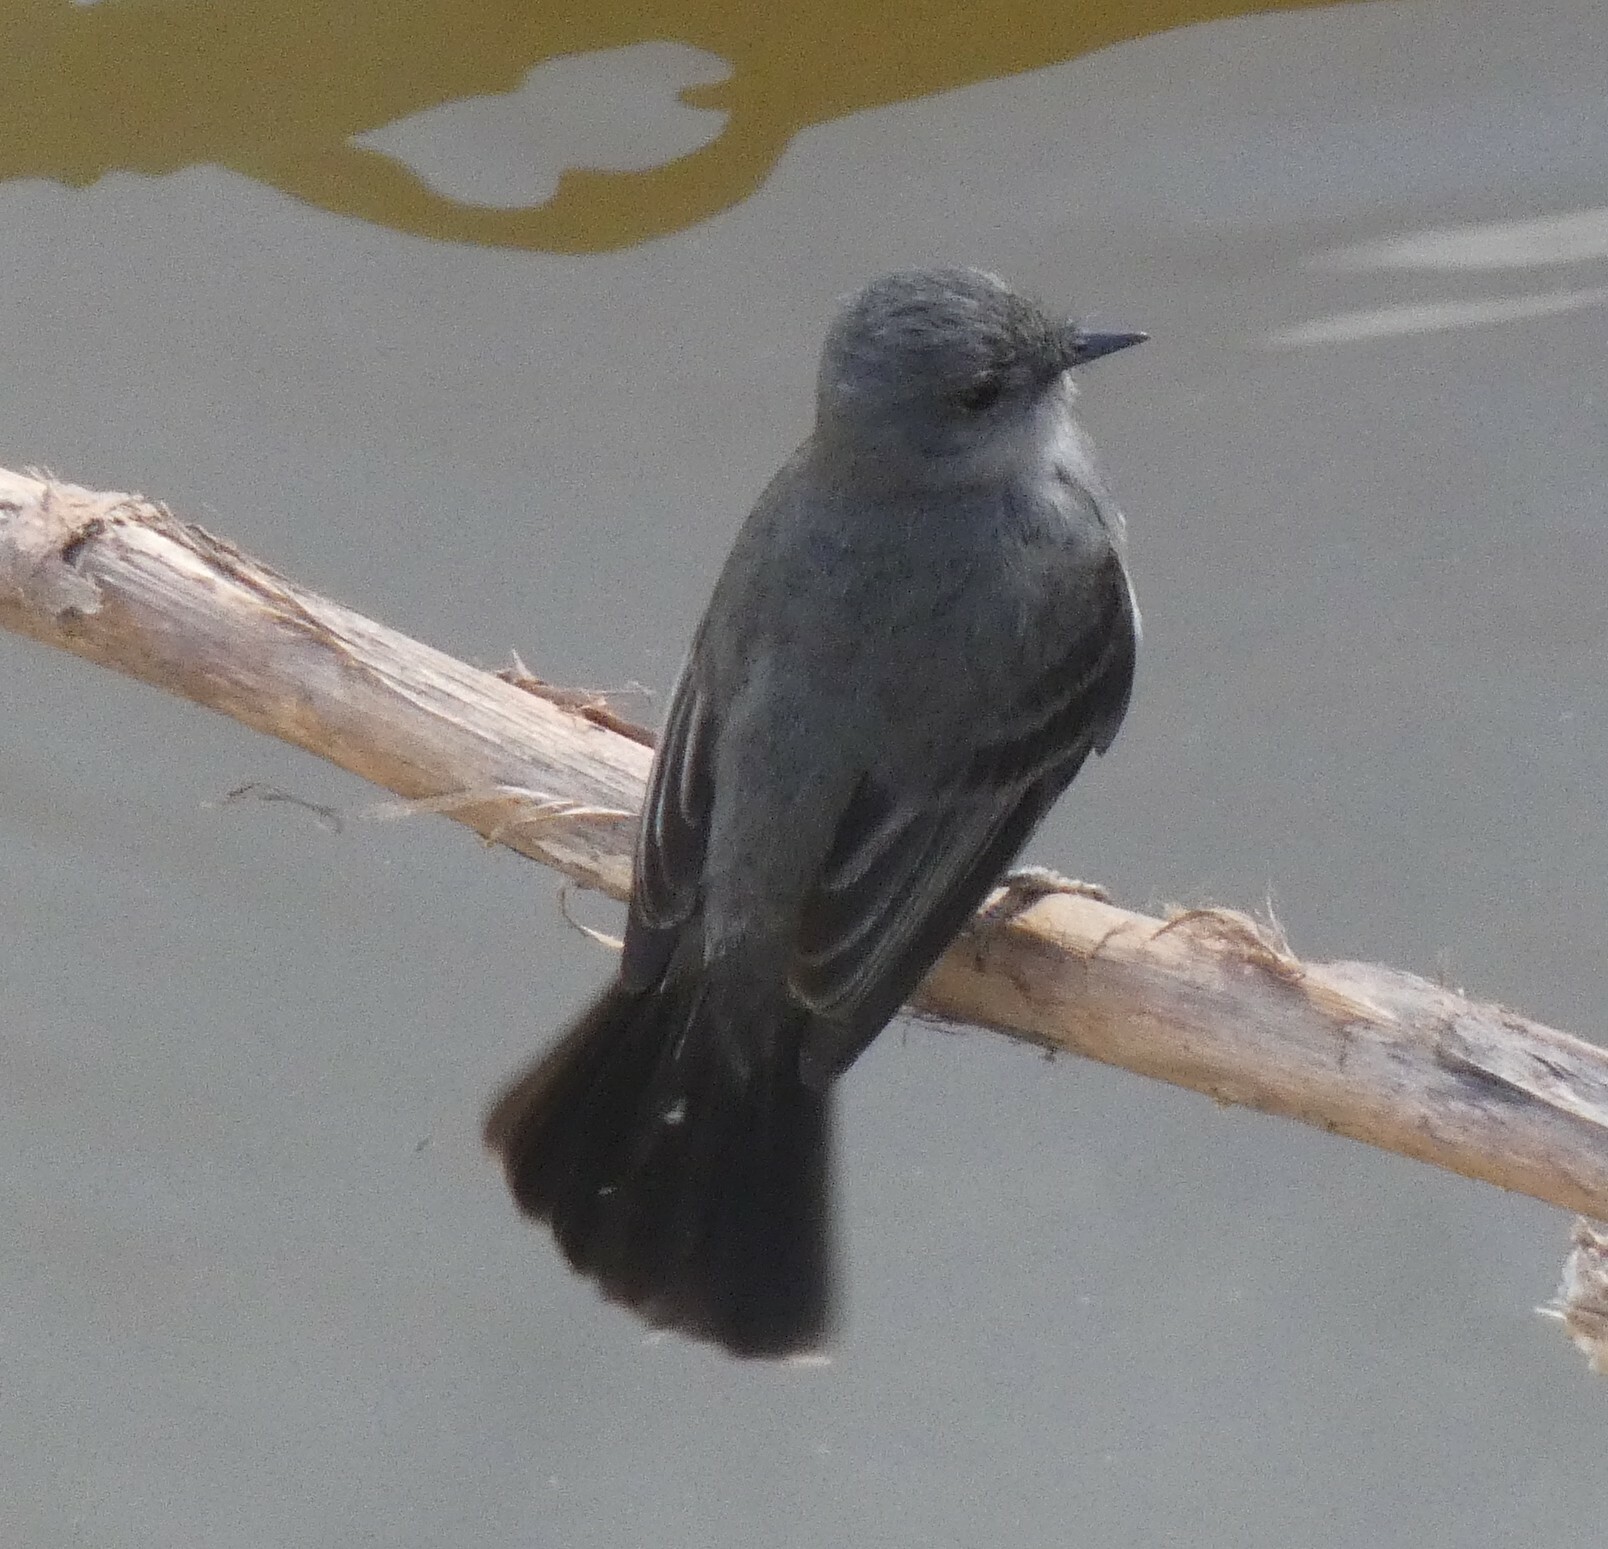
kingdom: Animalia
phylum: Chordata
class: Aves
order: Passeriformes
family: Tyrannidae
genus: Serpophaga
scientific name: Serpophaga nigricans
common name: Sooty tyrannulet
